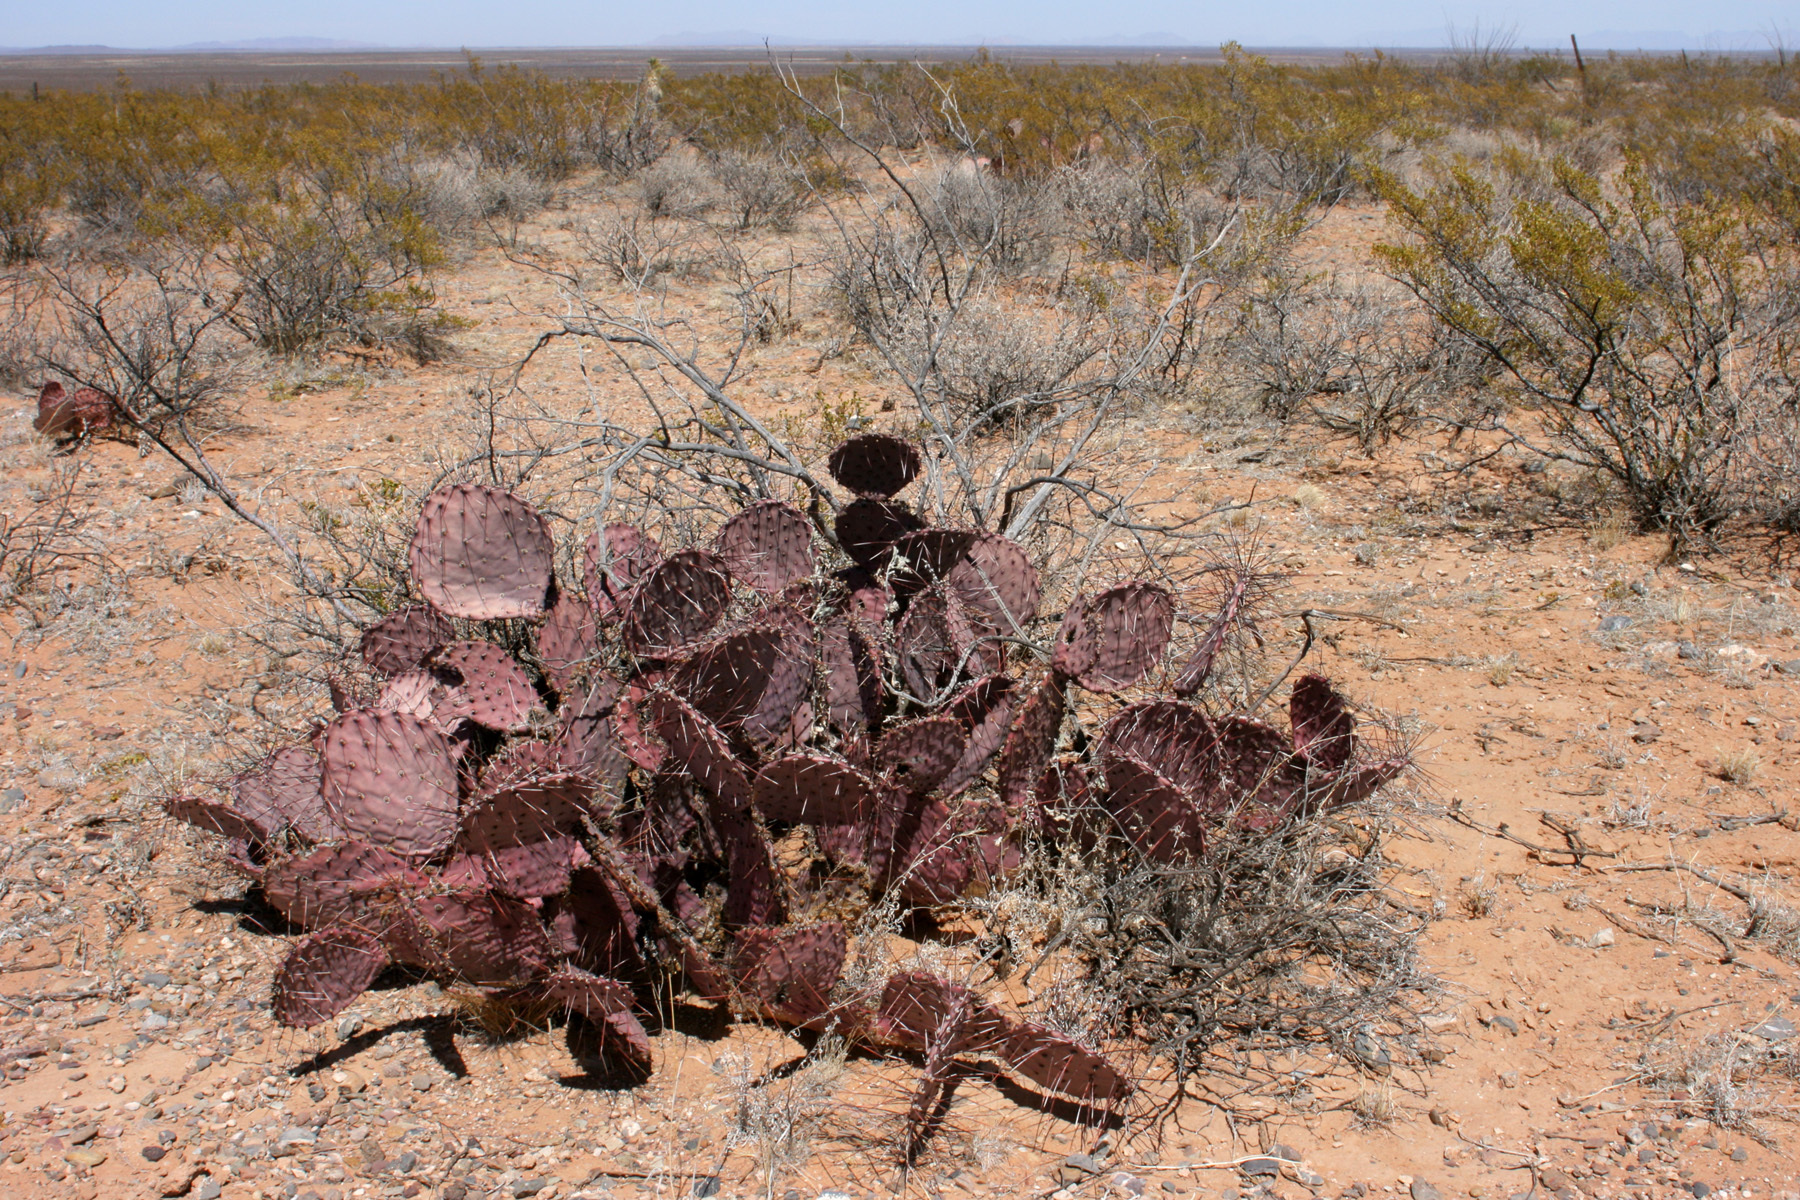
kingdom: Plantae
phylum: Tracheophyta
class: Magnoliopsida
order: Caryophyllales
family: Cactaceae
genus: Opuntia
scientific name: Opuntia macrocentra
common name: Purple prickly-pear
